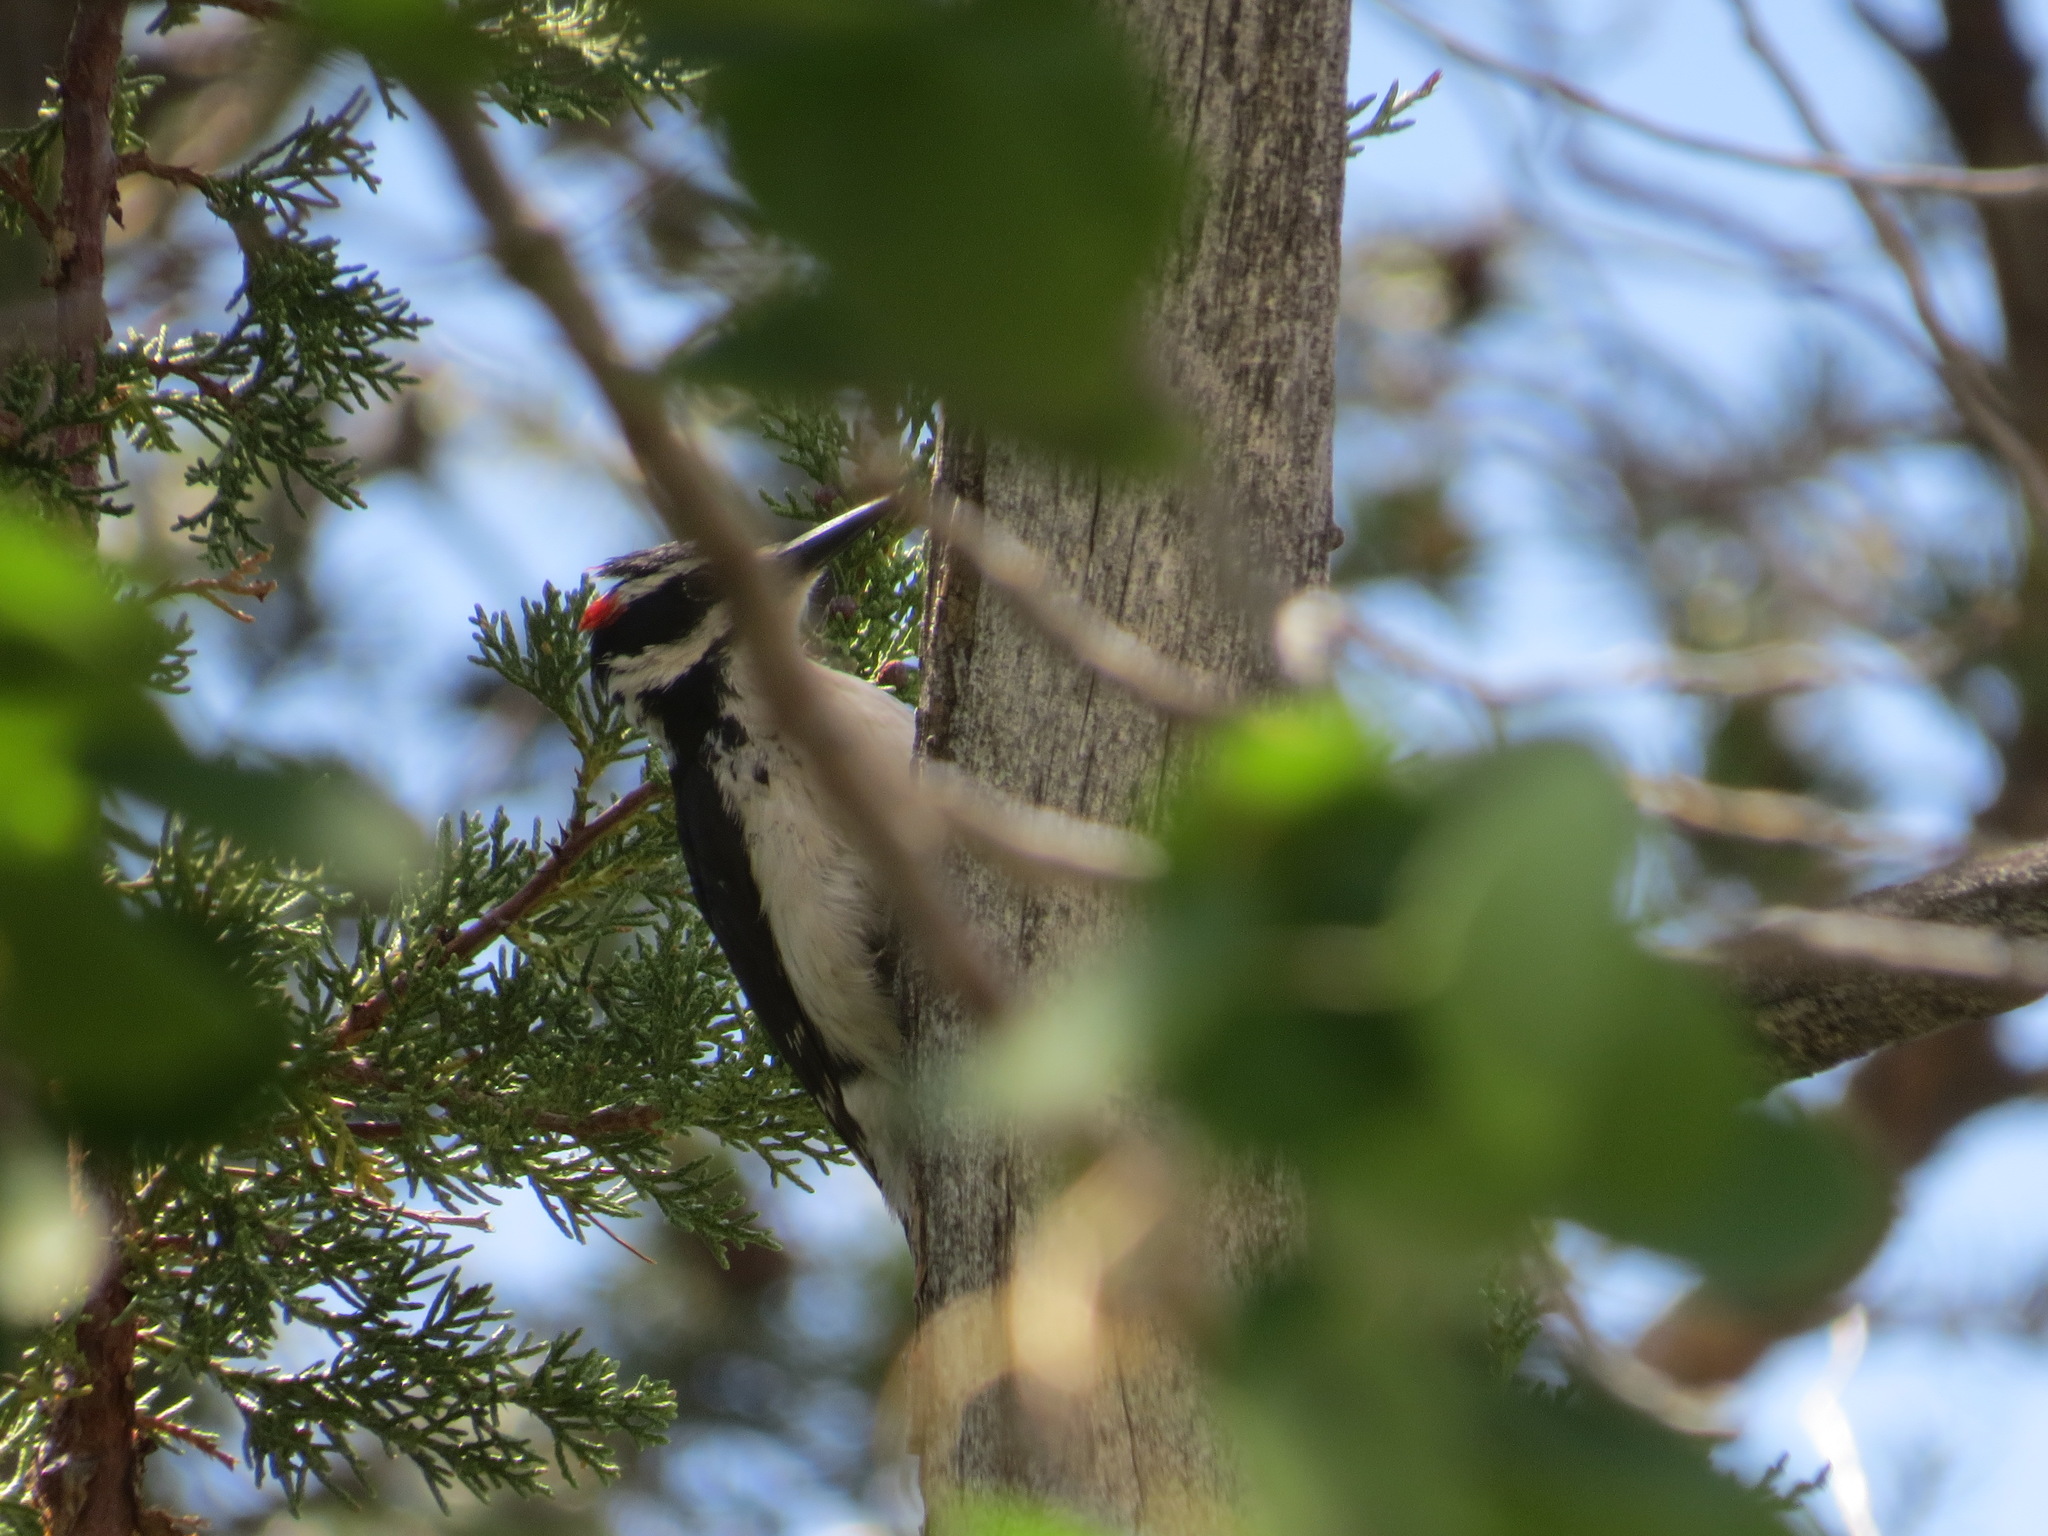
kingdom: Animalia
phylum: Chordata
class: Aves
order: Piciformes
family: Picidae
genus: Leuconotopicus
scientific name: Leuconotopicus villosus
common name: Hairy woodpecker
